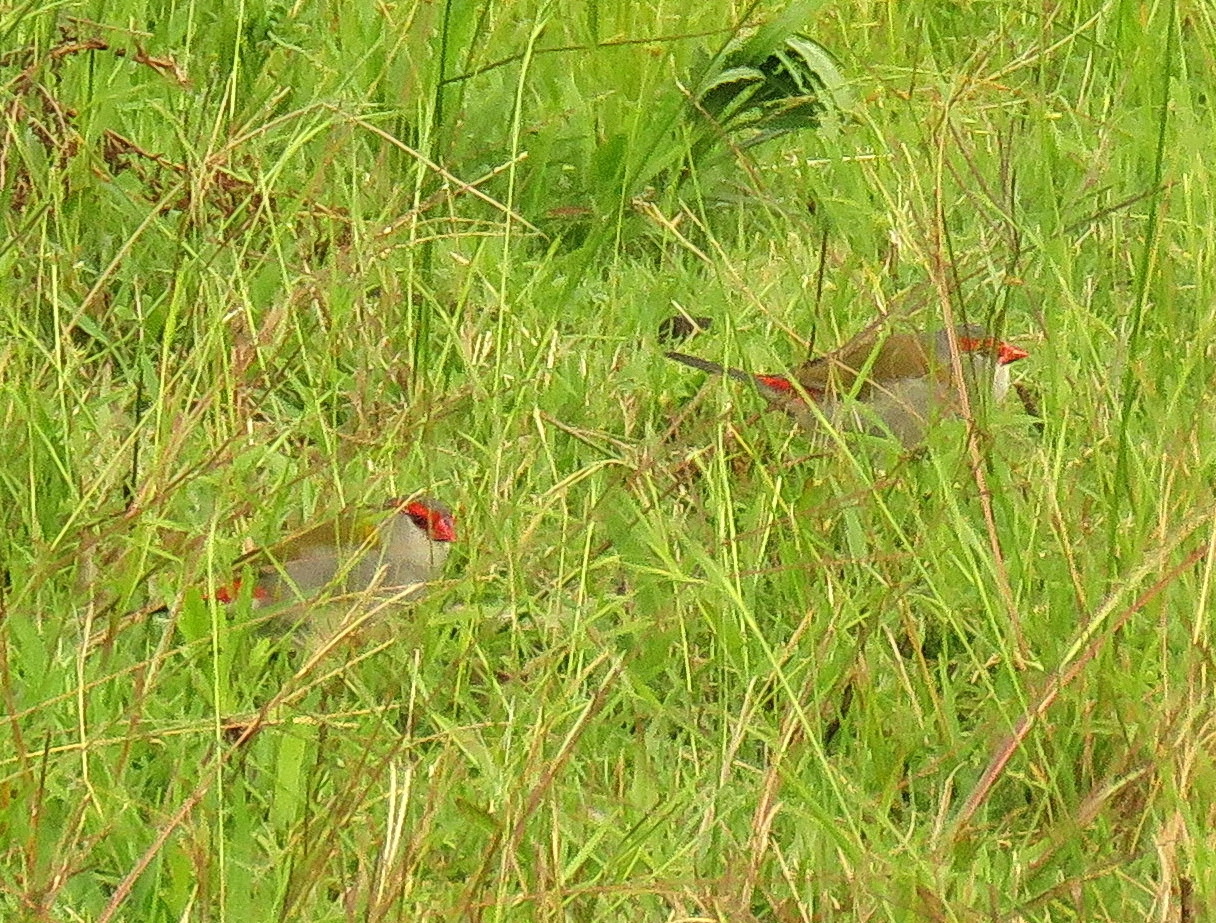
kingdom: Animalia
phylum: Chordata
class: Aves
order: Passeriformes
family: Estrildidae
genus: Neochmia
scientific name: Neochmia temporalis
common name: Red-browed finch
